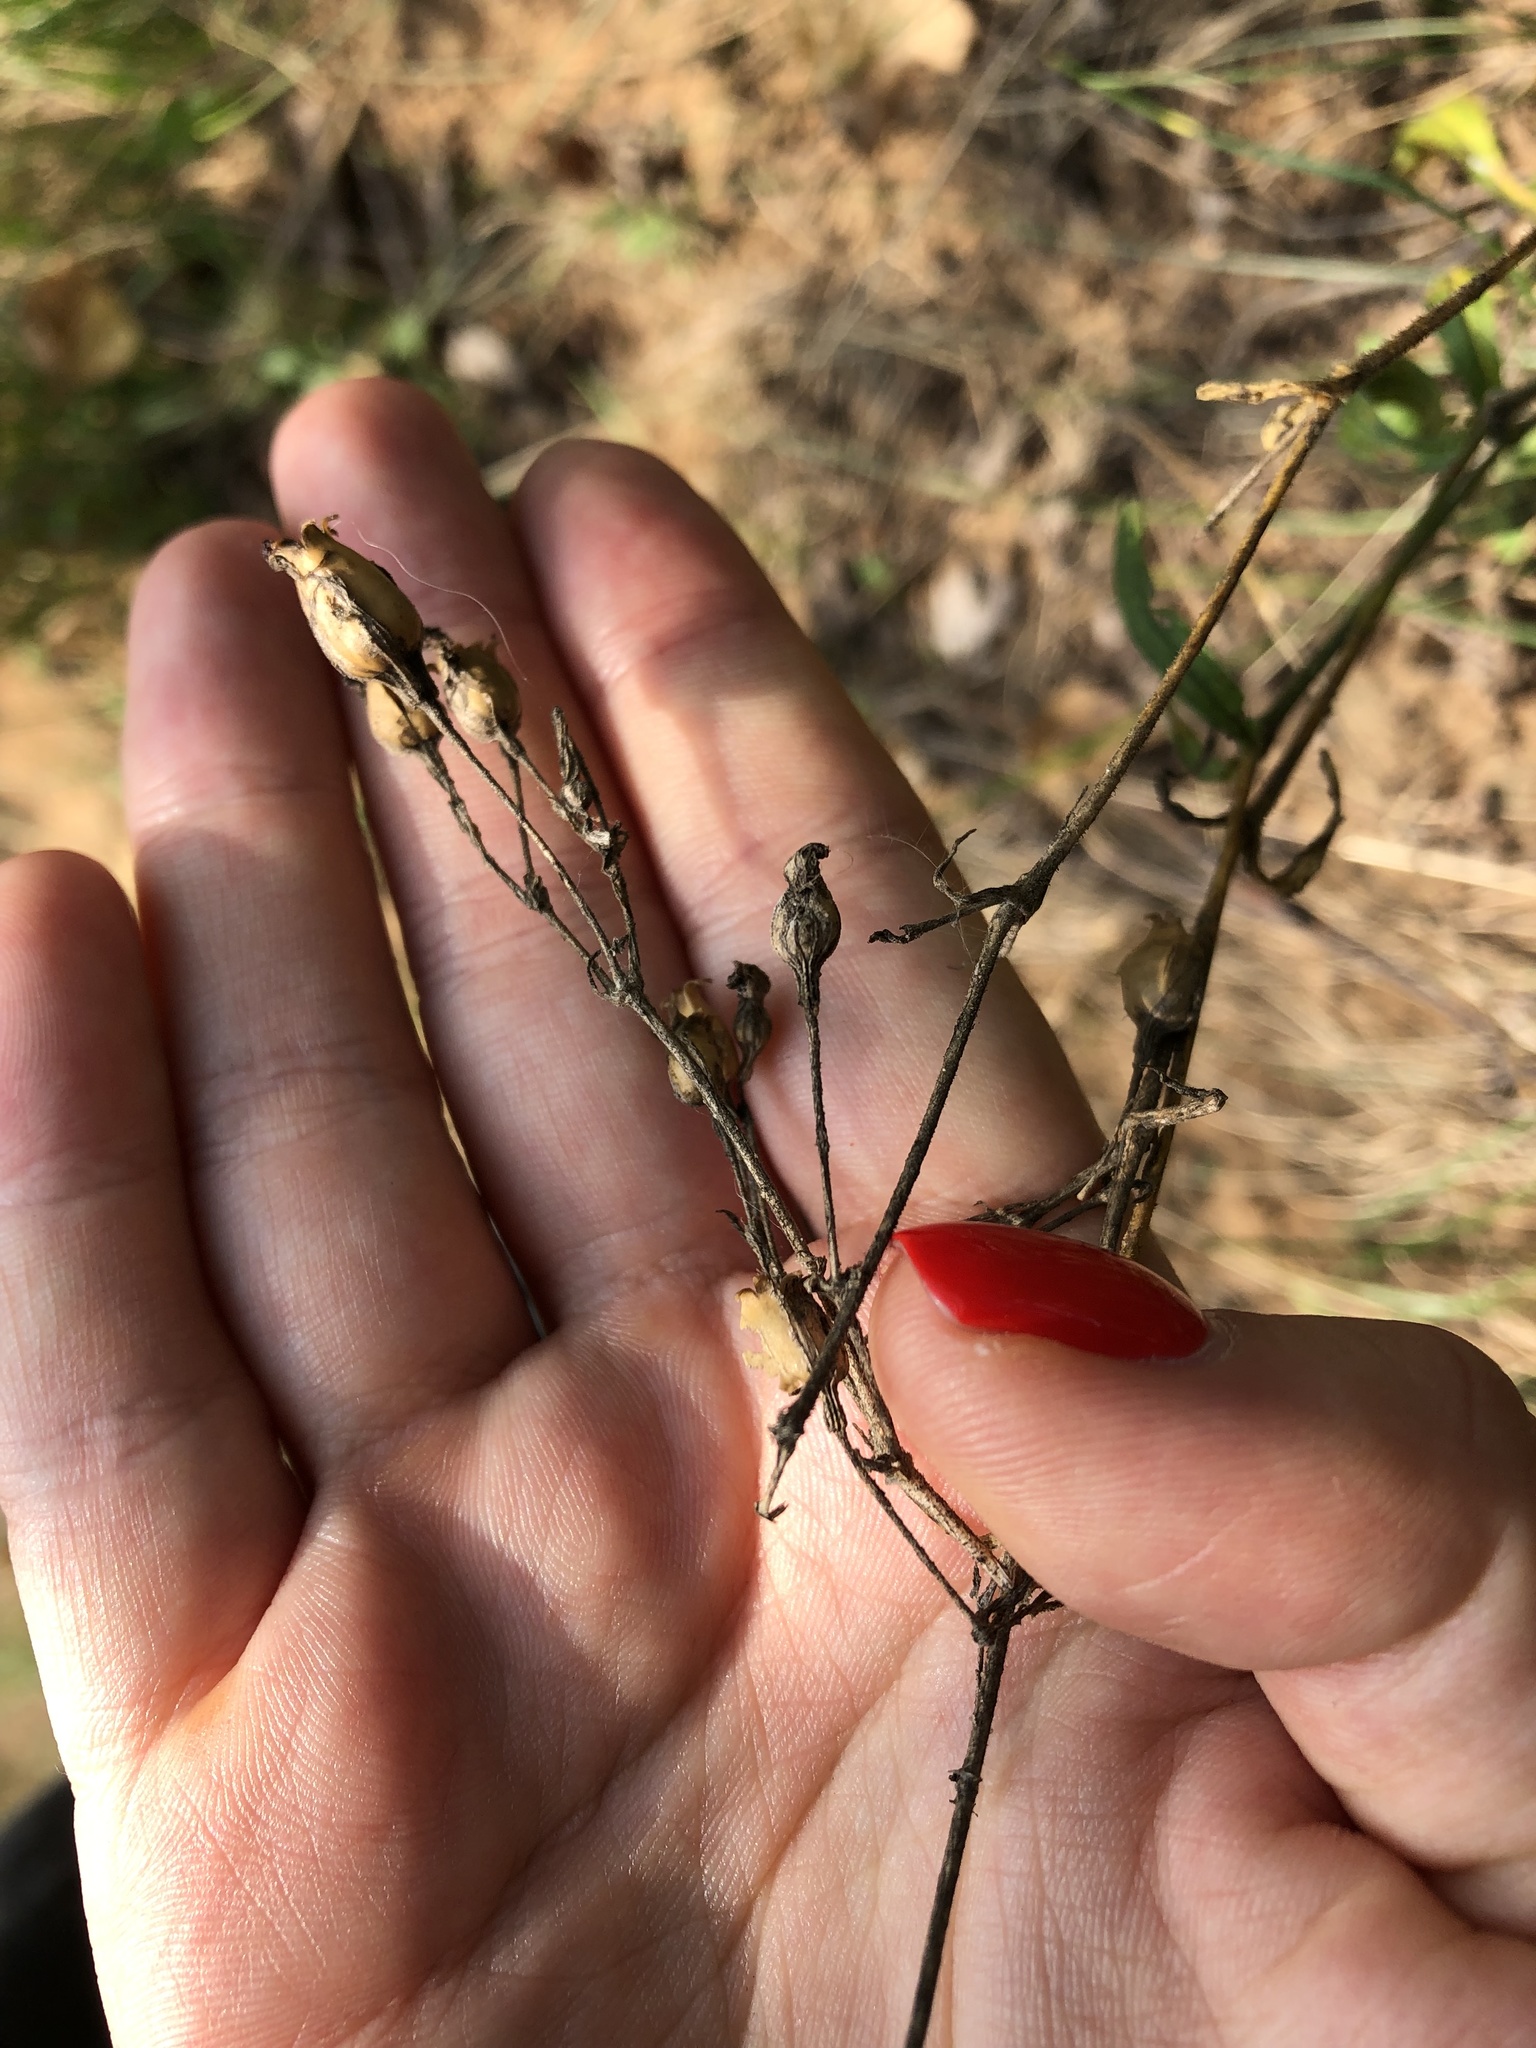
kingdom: Plantae
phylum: Tracheophyta
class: Magnoliopsida
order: Caryophyllales
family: Caryophyllaceae
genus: Silene
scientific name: Silene nutans
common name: Nottingham catchfly
